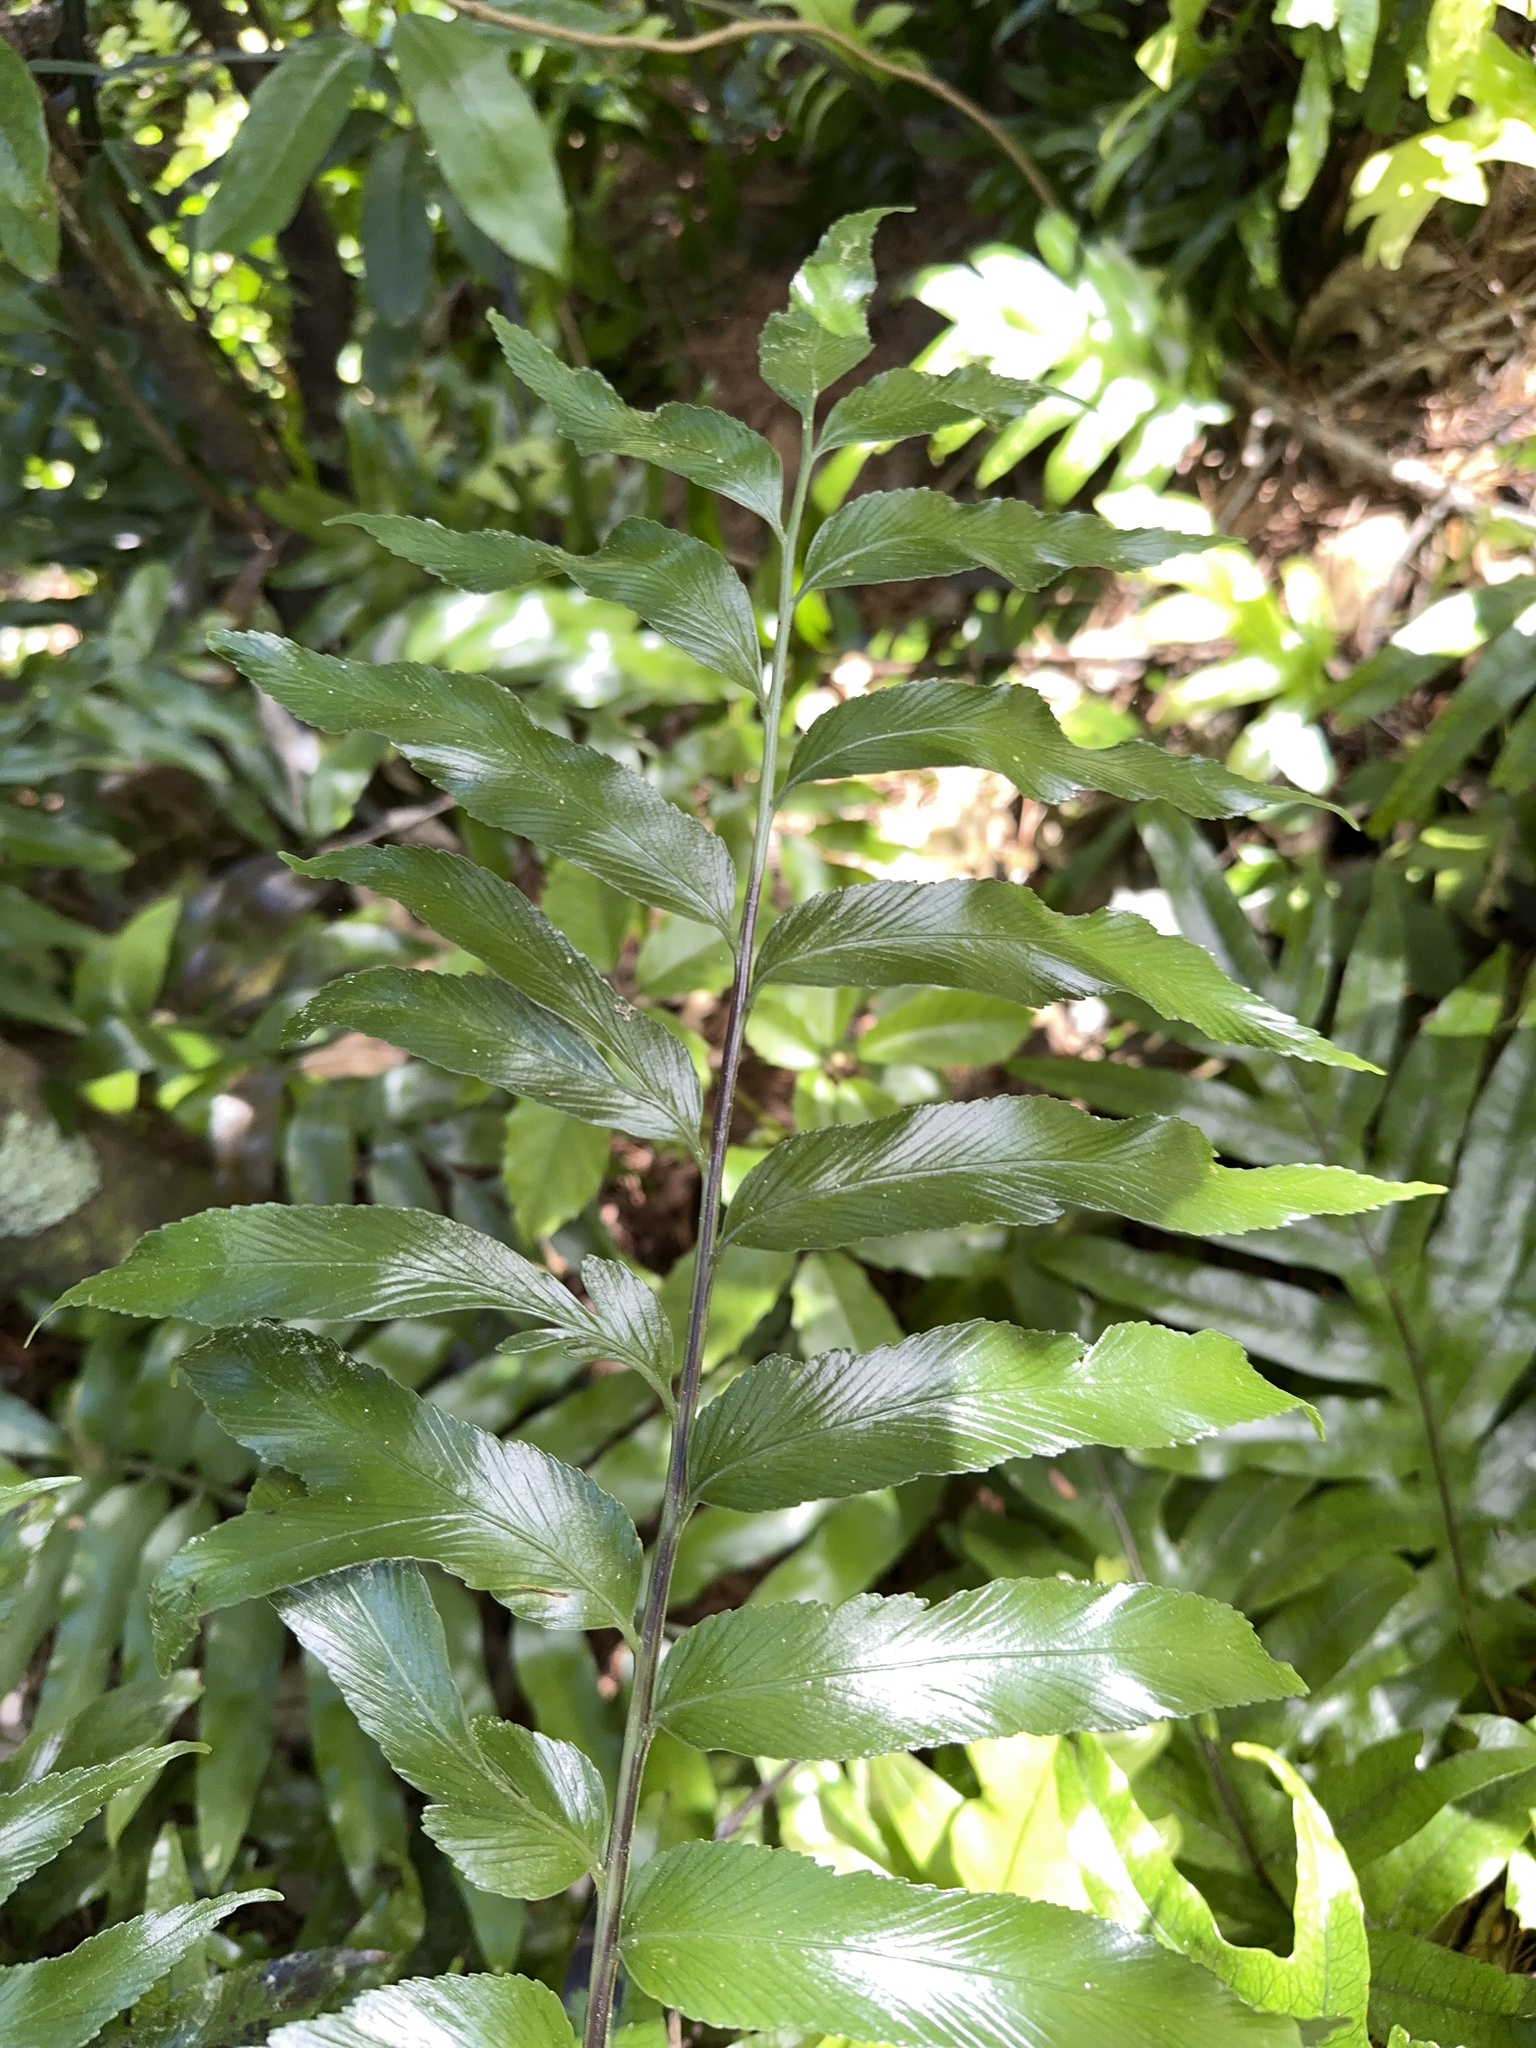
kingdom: Plantae
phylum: Tracheophyta
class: Polypodiopsida
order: Polypodiales
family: Aspleniaceae
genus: Asplenium
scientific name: Asplenium oblongifolium
